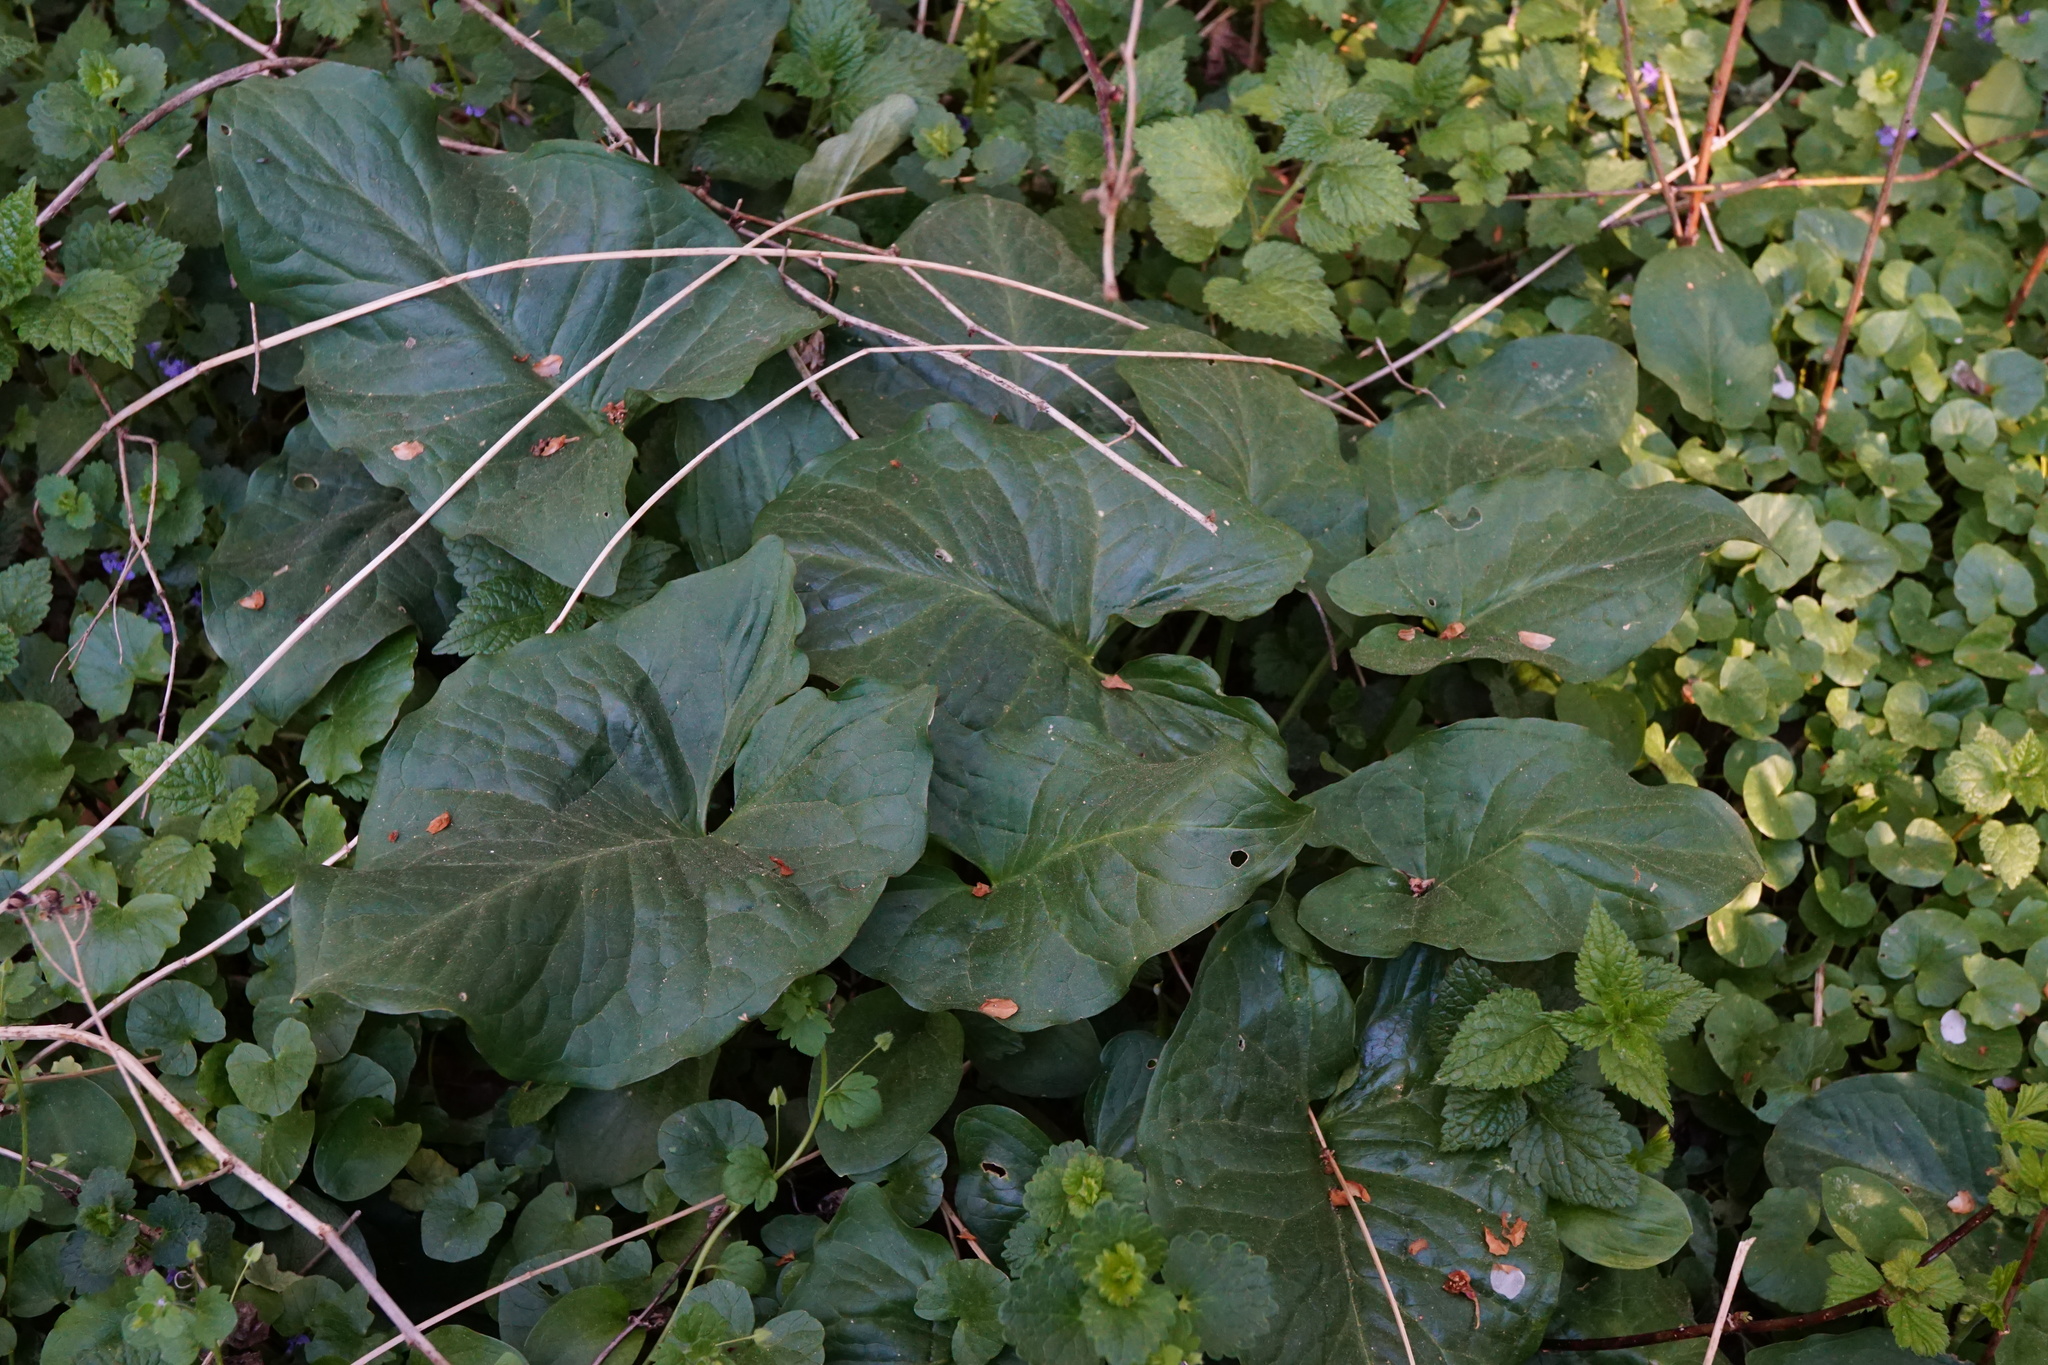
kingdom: Plantae
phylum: Tracheophyta
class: Liliopsida
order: Alismatales
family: Araceae
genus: Arum
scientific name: Arum cylindraceum
